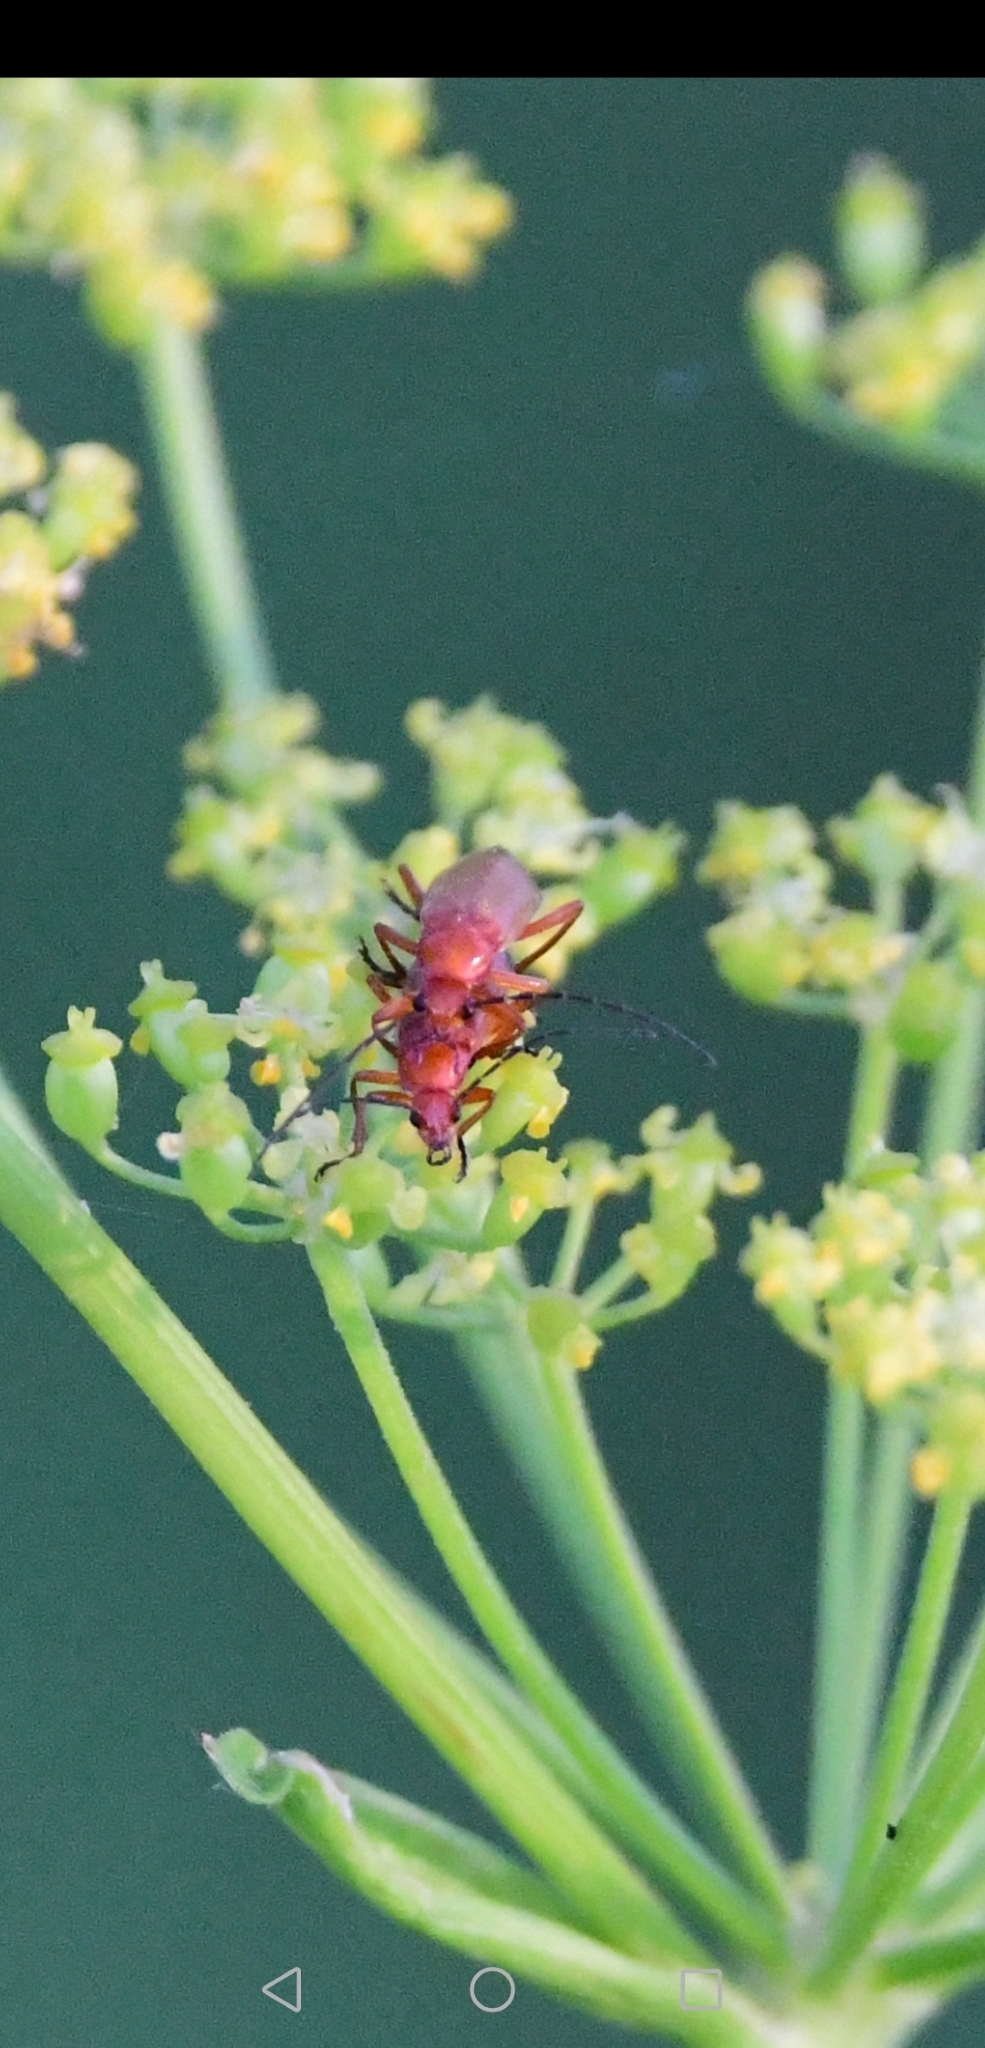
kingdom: Animalia
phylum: Arthropoda
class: Insecta
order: Coleoptera
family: Cantharidae
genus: Rhagonycha
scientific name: Rhagonycha fulva
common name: Common red soldier beetle
